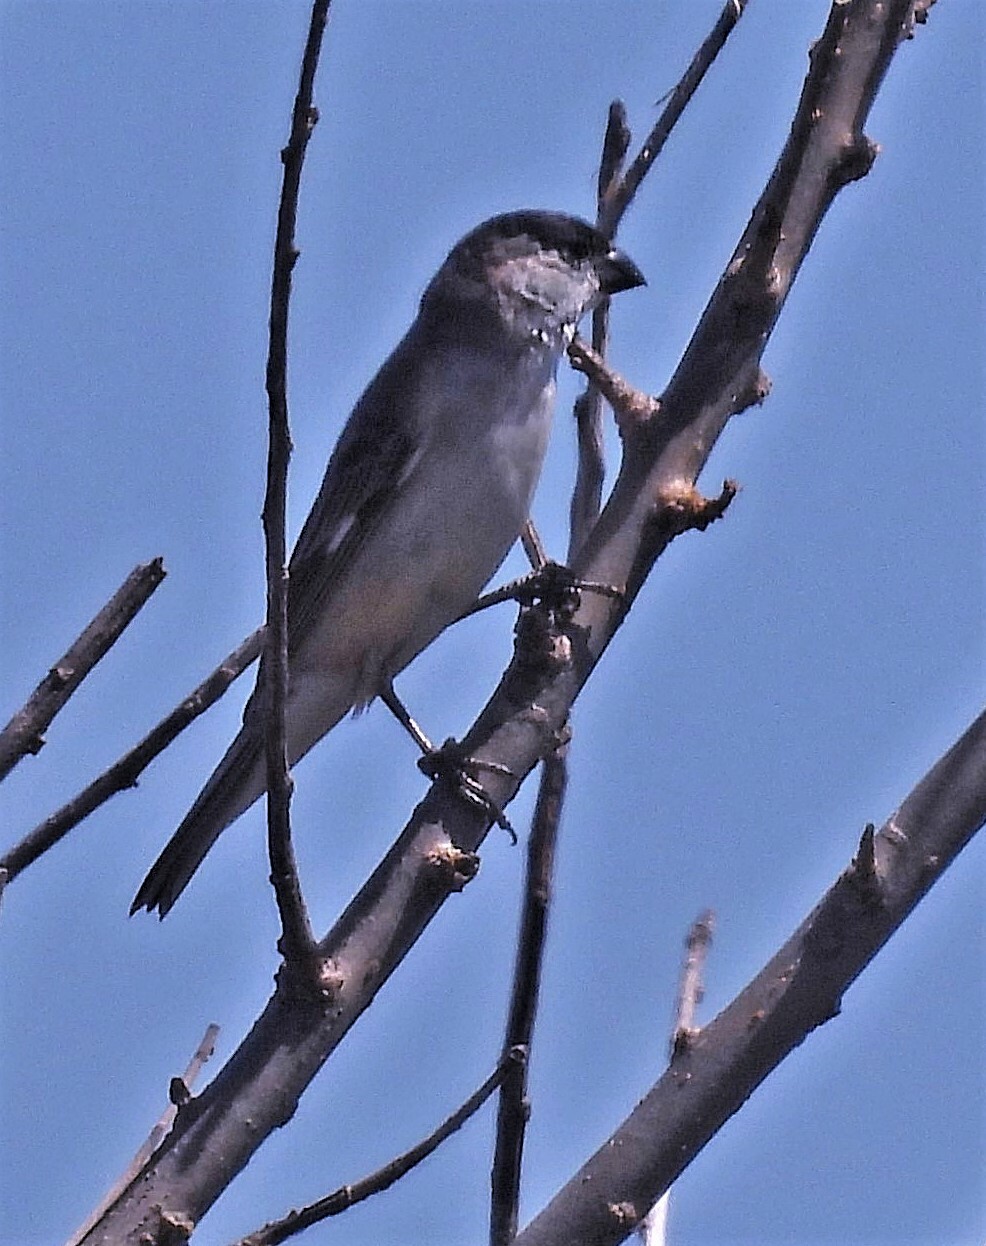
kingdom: Animalia
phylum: Chordata
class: Aves
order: Passeriformes
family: Thraupidae
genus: Sporophila
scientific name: Sporophila pileata
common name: Pearly-bellied seedeater
